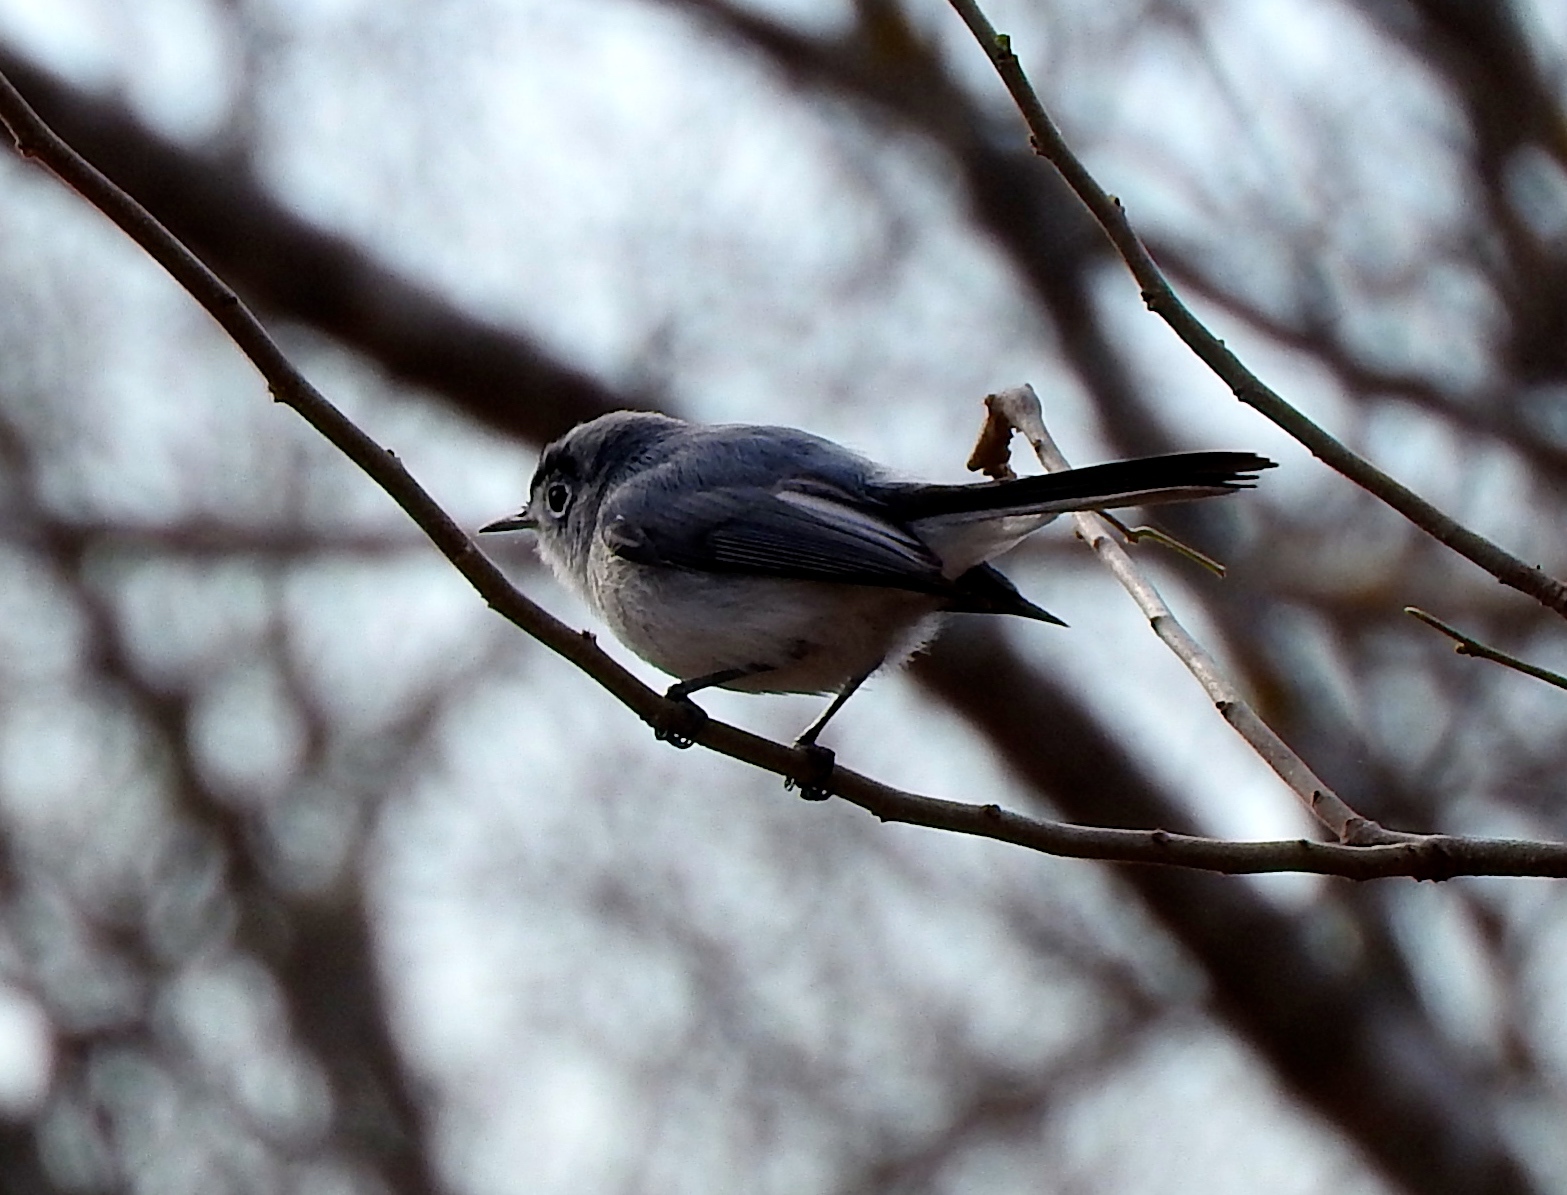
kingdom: Animalia
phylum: Chordata
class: Aves
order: Passeriformes
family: Polioptilidae
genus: Polioptila
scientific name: Polioptila caerulea
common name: Blue-gray gnatcatcher
